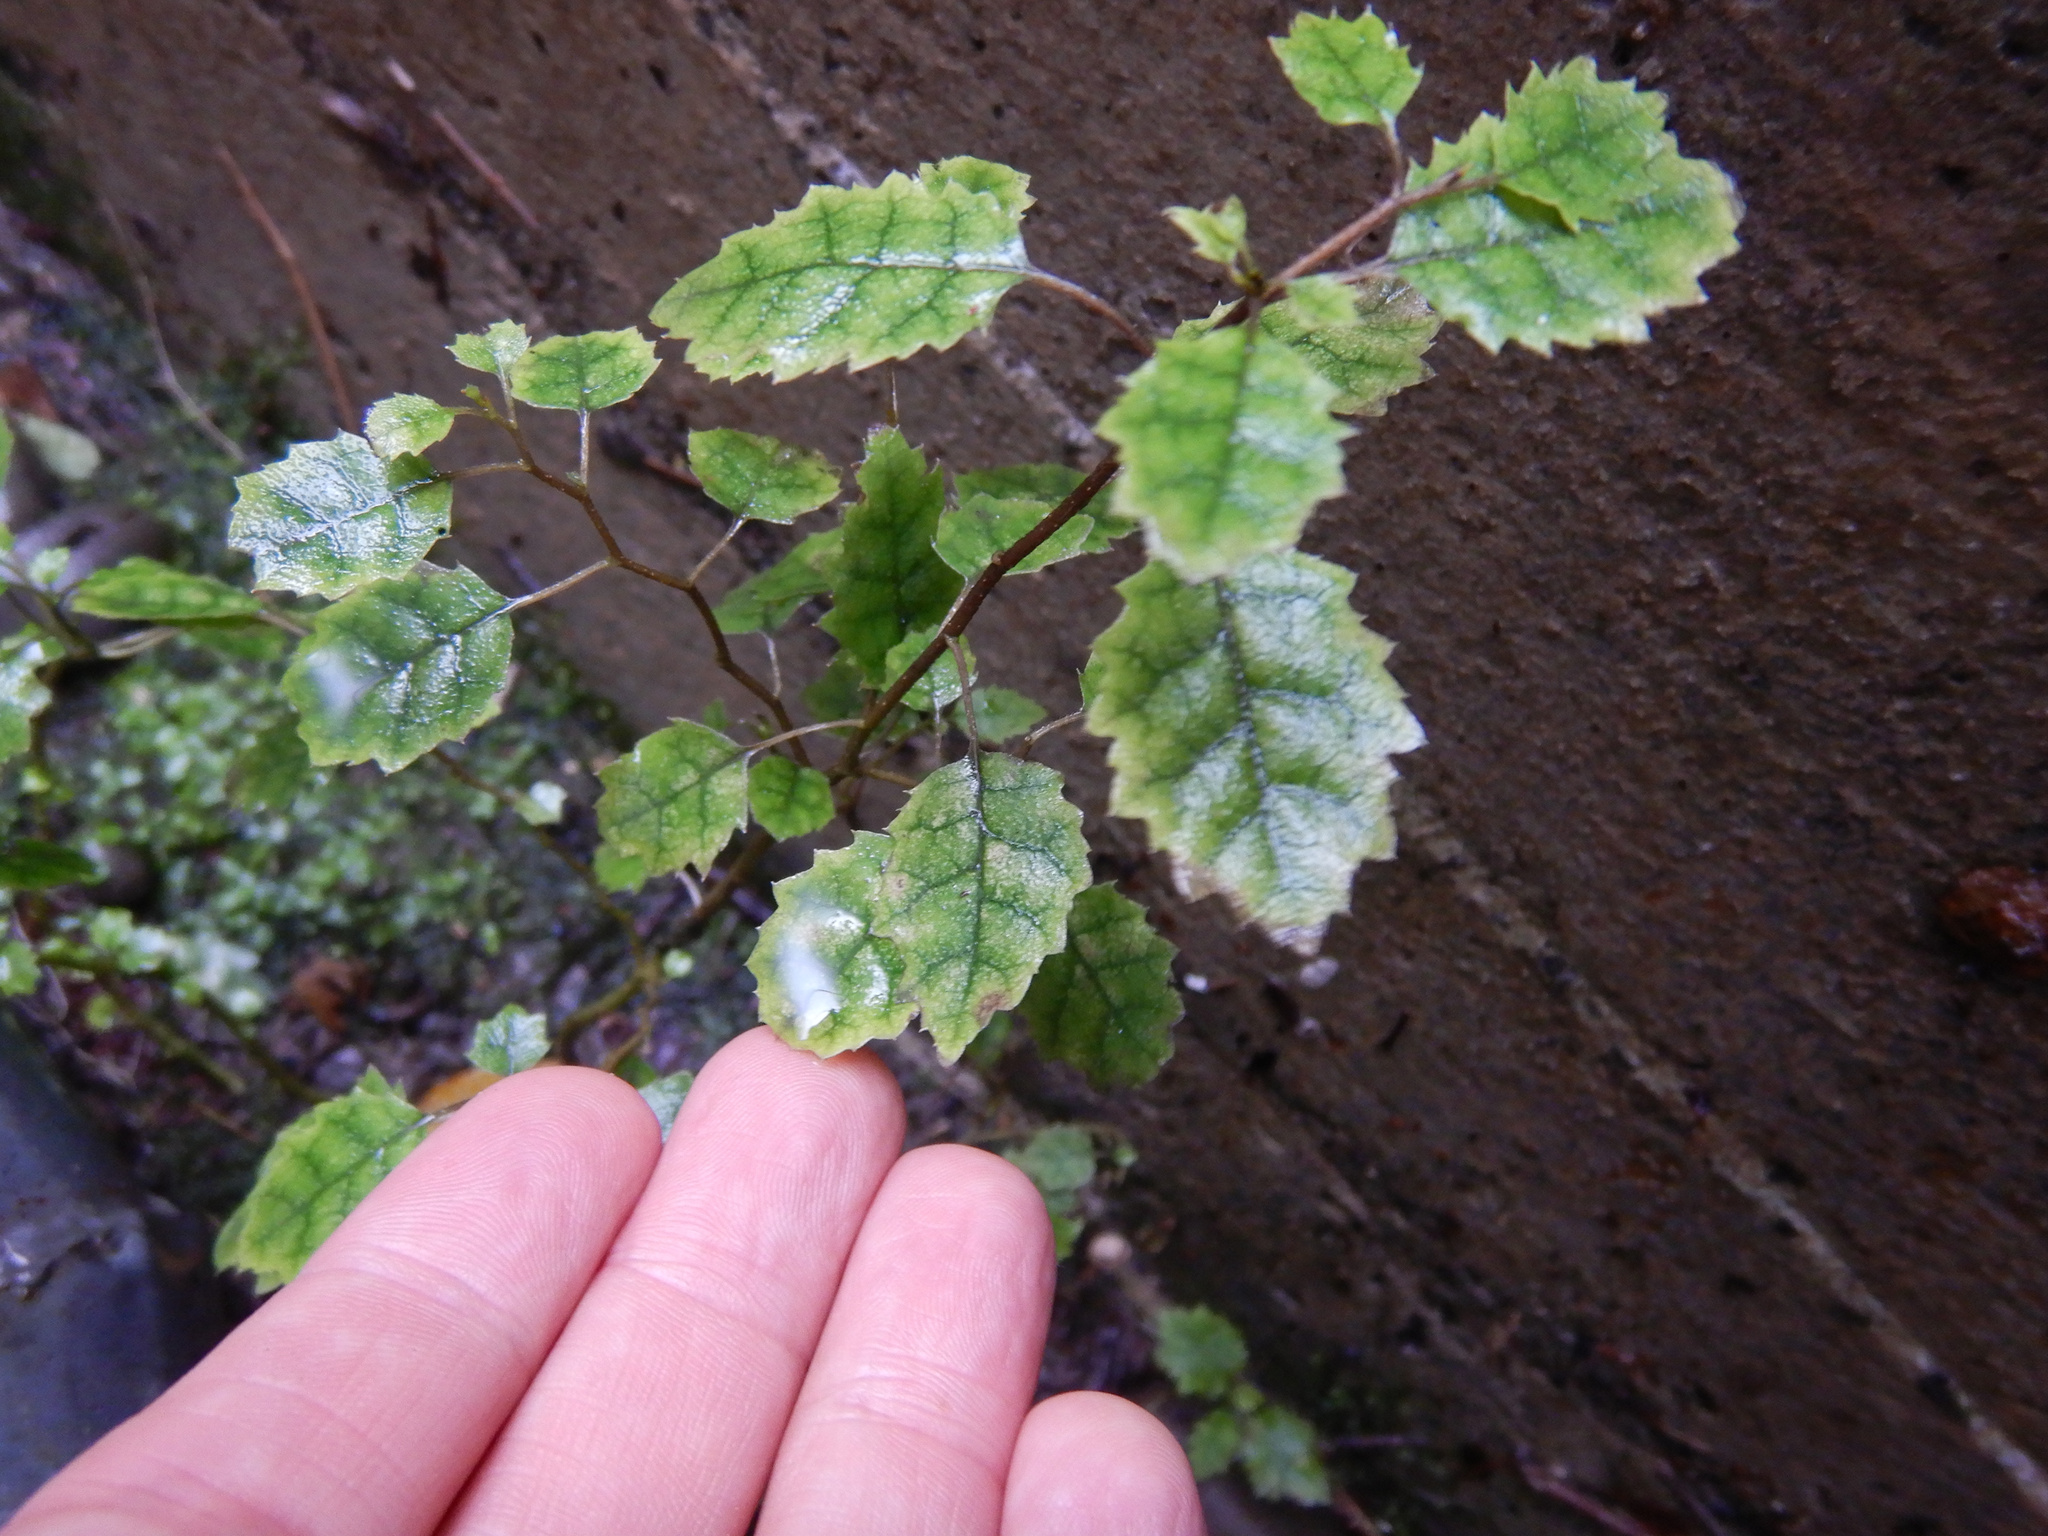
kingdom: Plantae
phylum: Tracheophyta
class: Magnoliopsida
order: Asterales
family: Rousseaceae
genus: Carpodetus
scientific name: Carpodetus serratus
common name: White mapau
